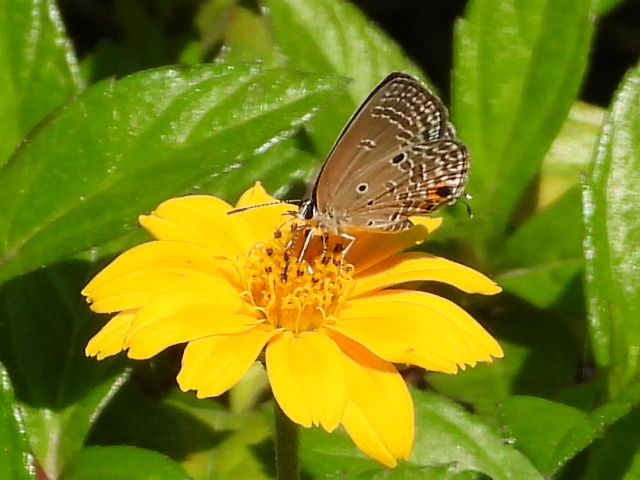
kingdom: Animalia
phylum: Arthropoda
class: Insecta
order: Lepidoptera
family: Lycaenidae
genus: Luthrodes
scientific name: Luthrodes pandava
